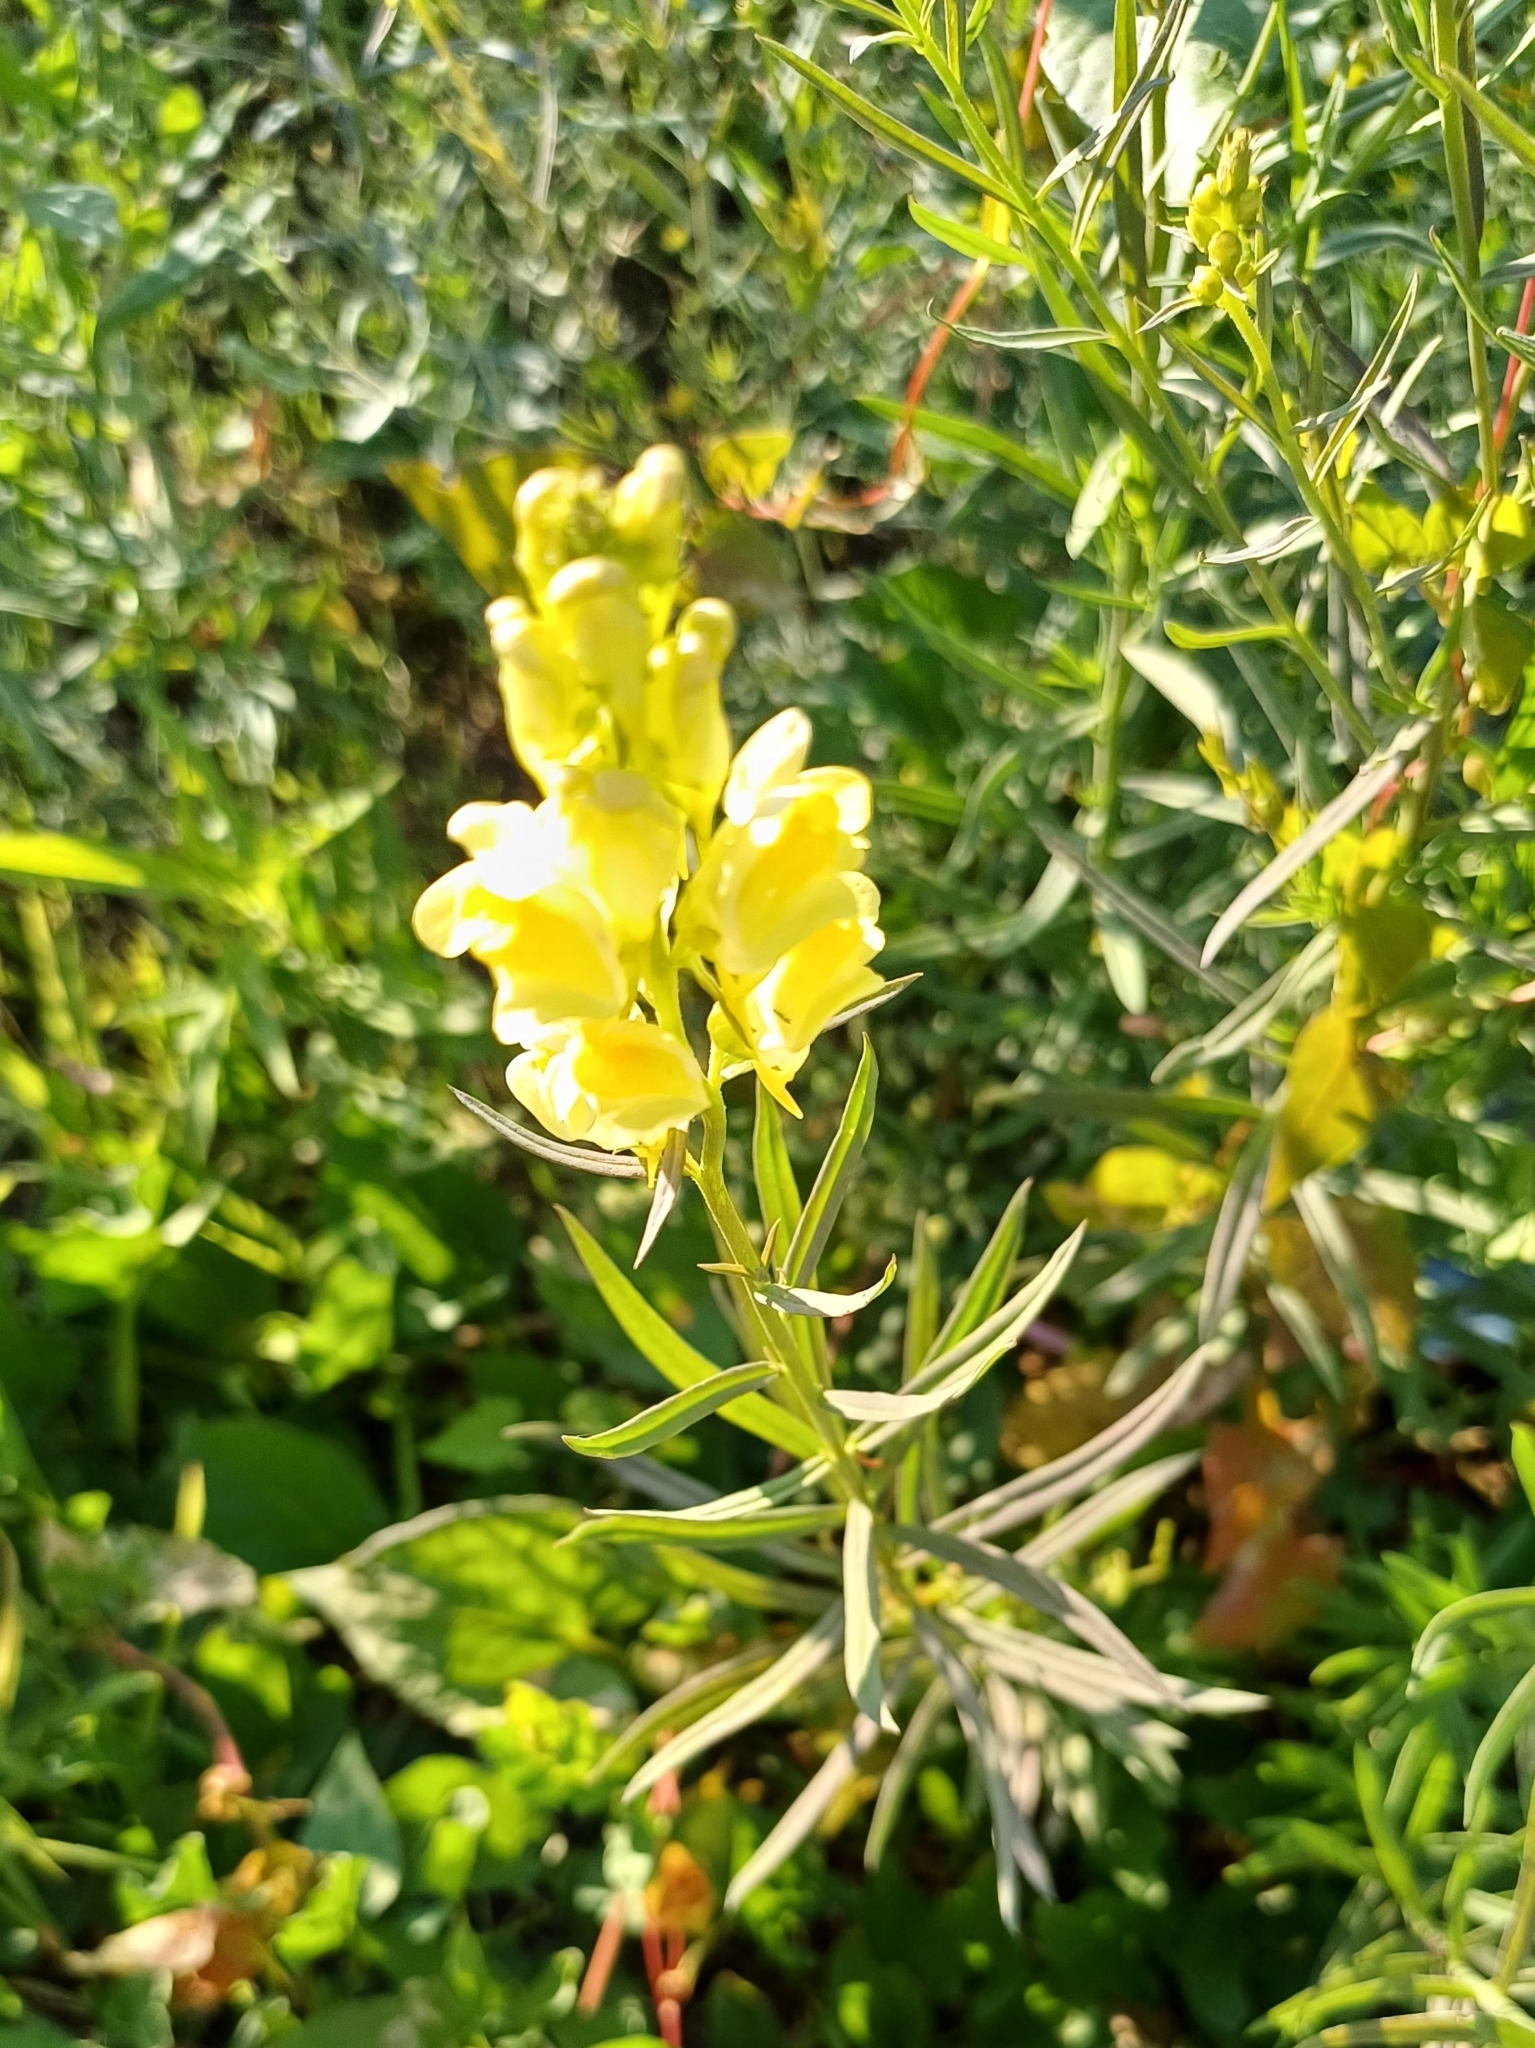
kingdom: Plantae
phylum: Tracheophyta
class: Magnoliopsida
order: Lamiales
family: Plantaginaceae
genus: Linaria
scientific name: Linaria vulgaris
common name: Butter and eggs
